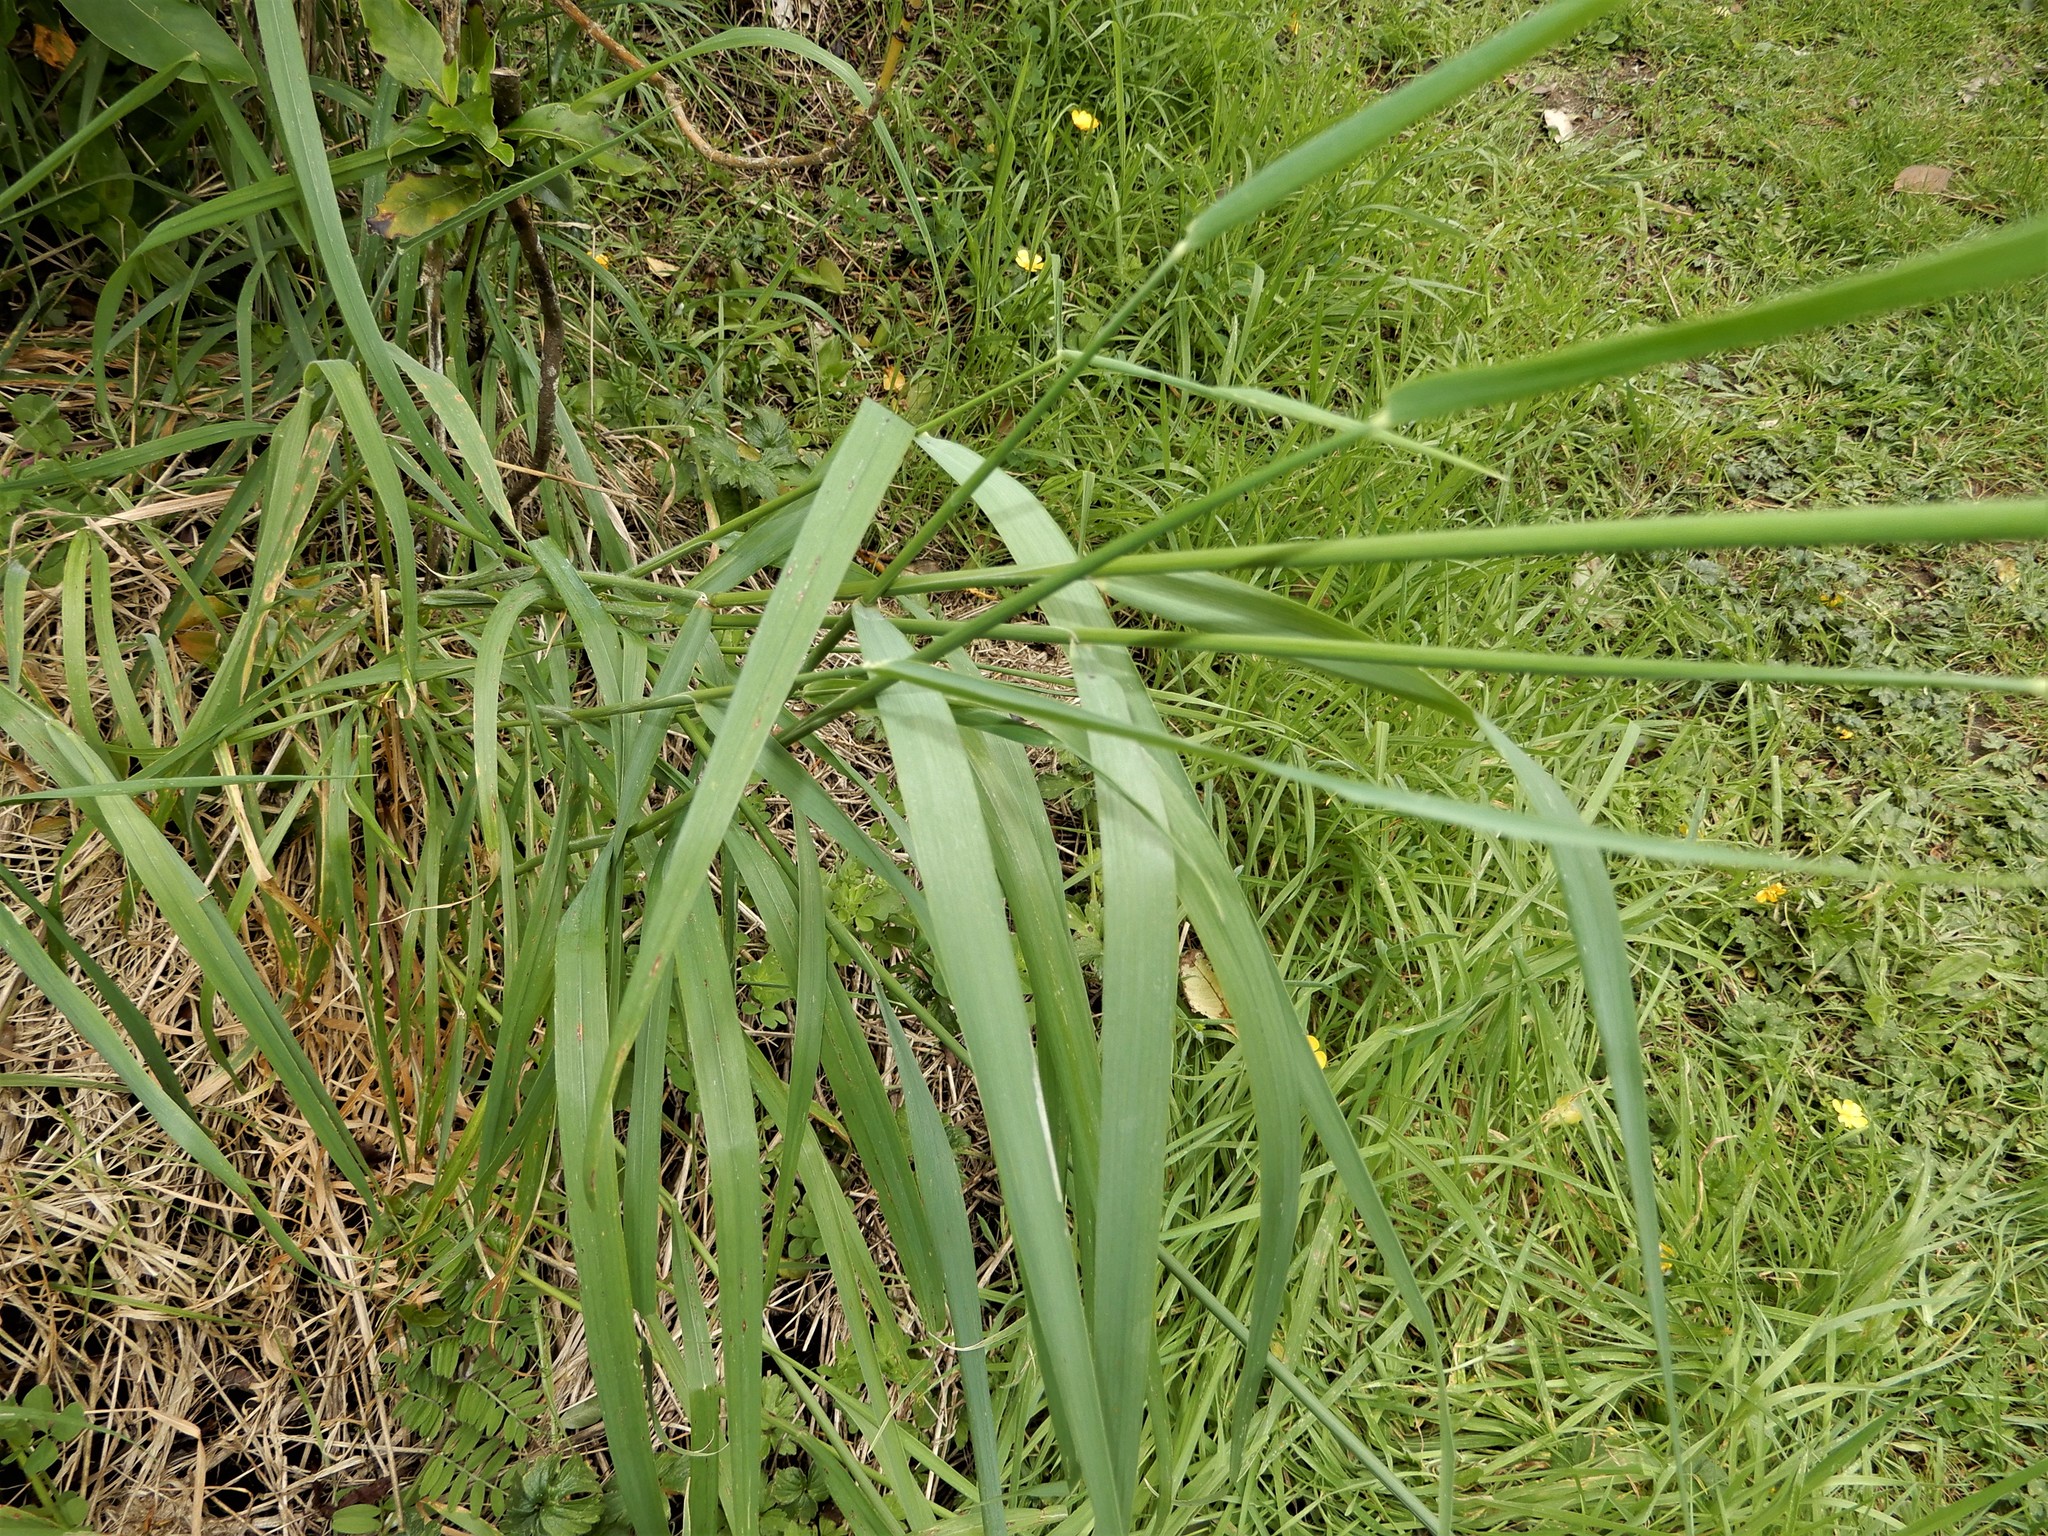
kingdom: Plantae
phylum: Tracheophyta
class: Liliopsida
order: Poales
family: Poaceae
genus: Arrhenatherum
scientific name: Arrhenatherum elatius
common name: Tall oatgrass
